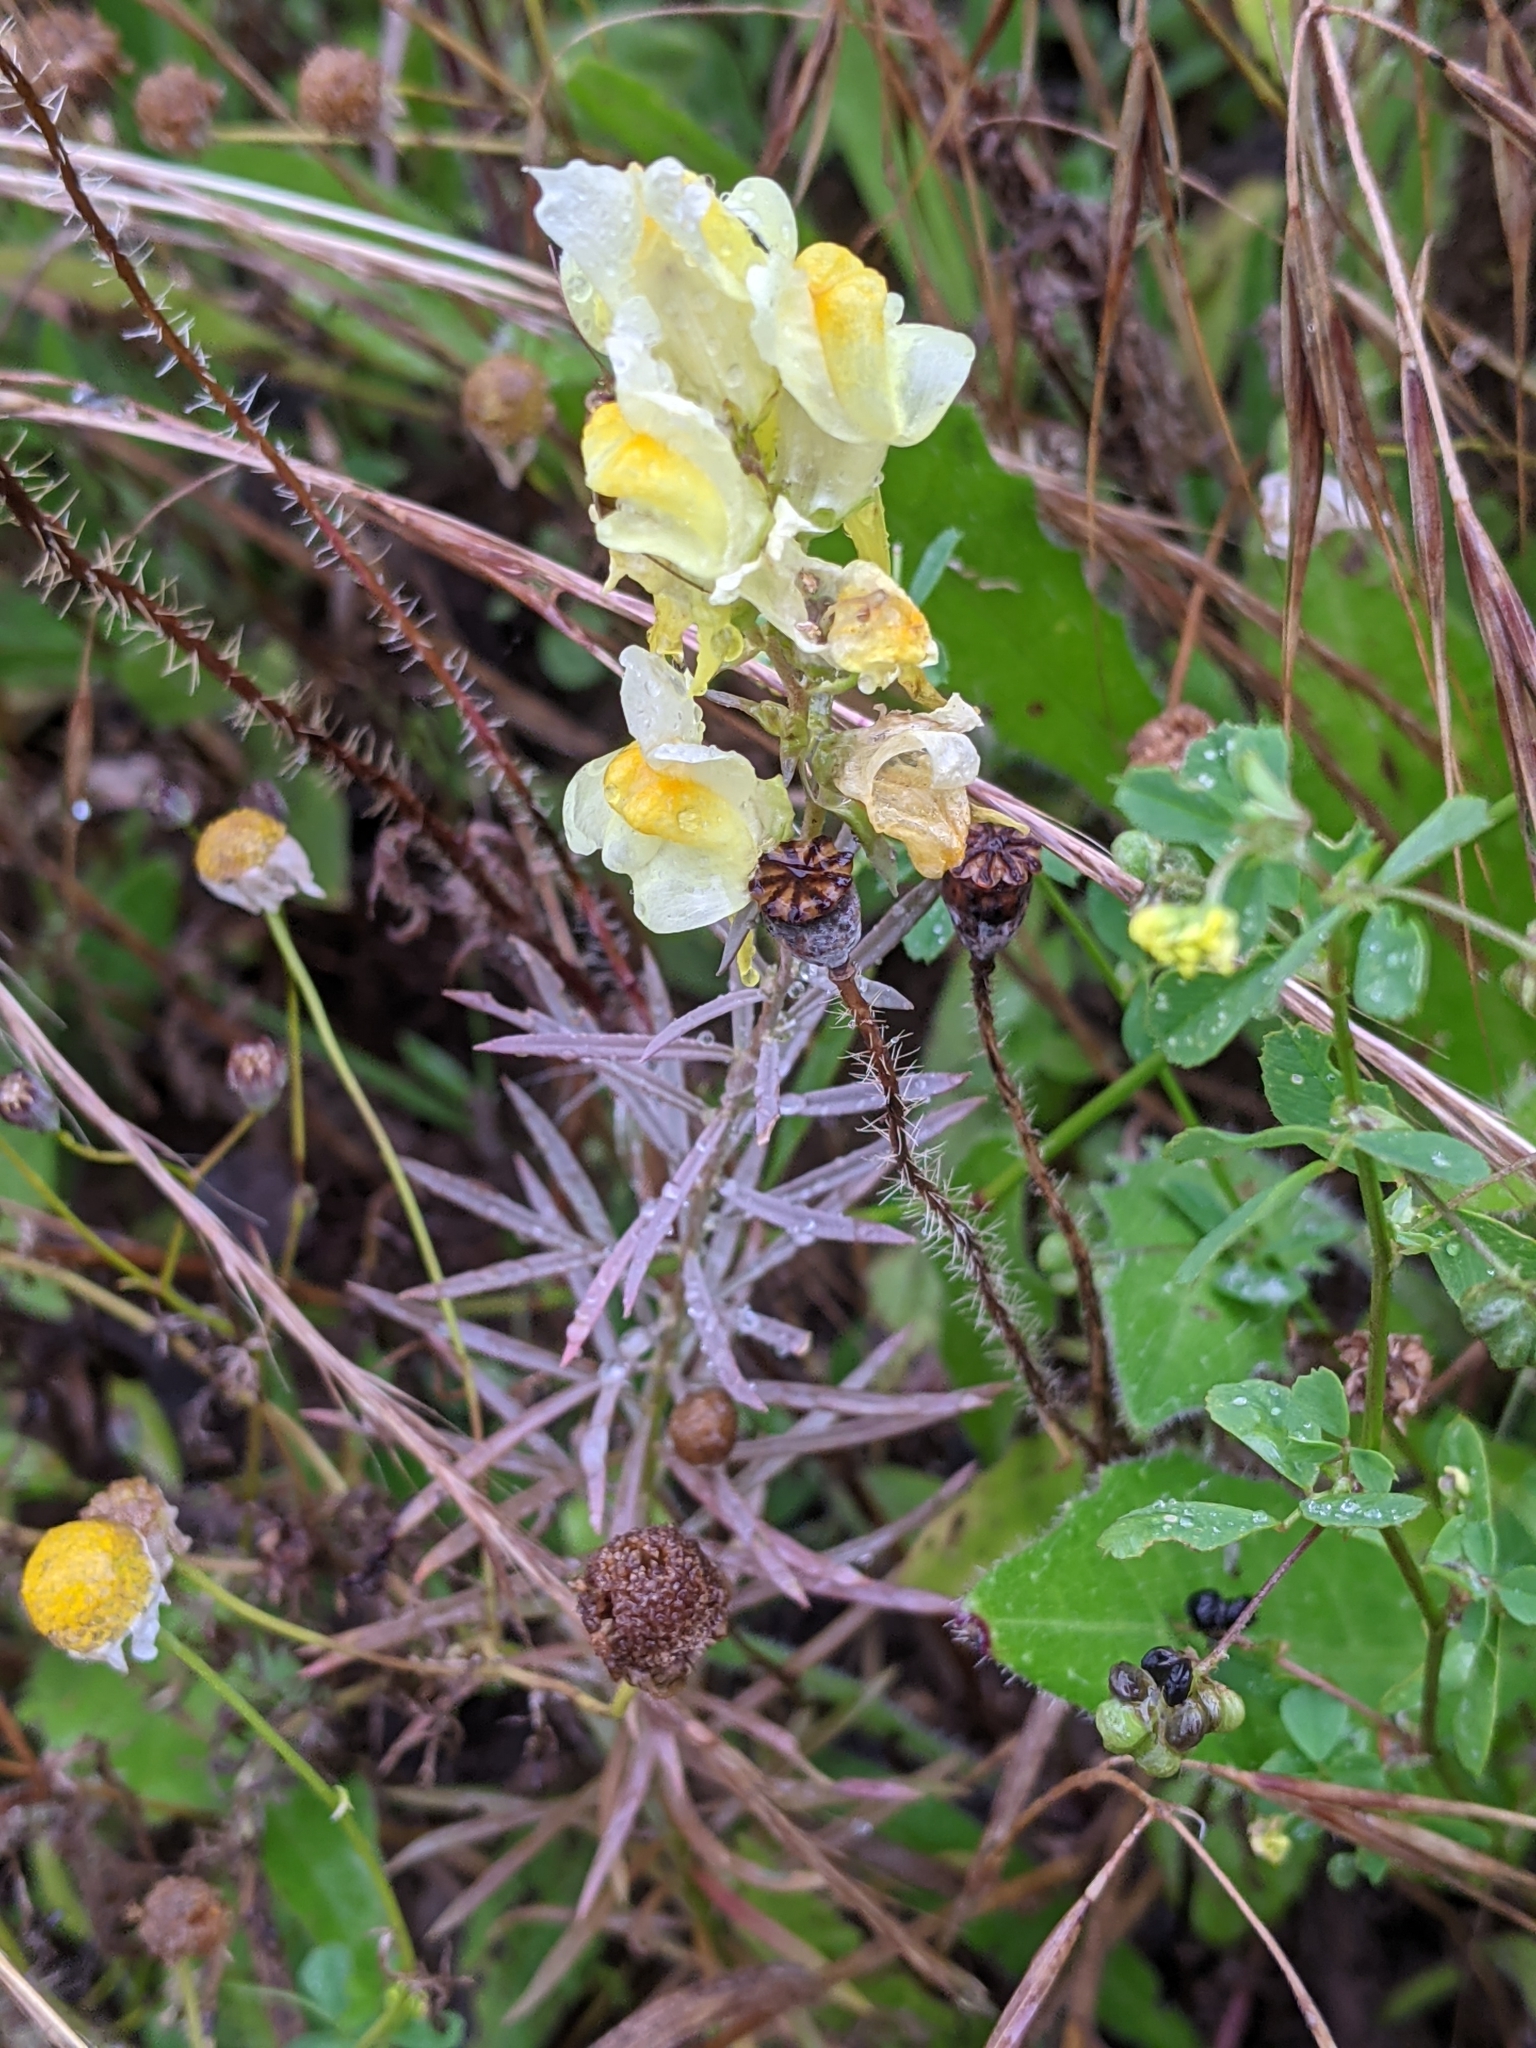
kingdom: Plantae
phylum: Tracheophyta
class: Magnoliopsida
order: Lamiales
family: Plantaginaceae
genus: Linaria
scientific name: Linaria vulgaris
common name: Butter and eggs
